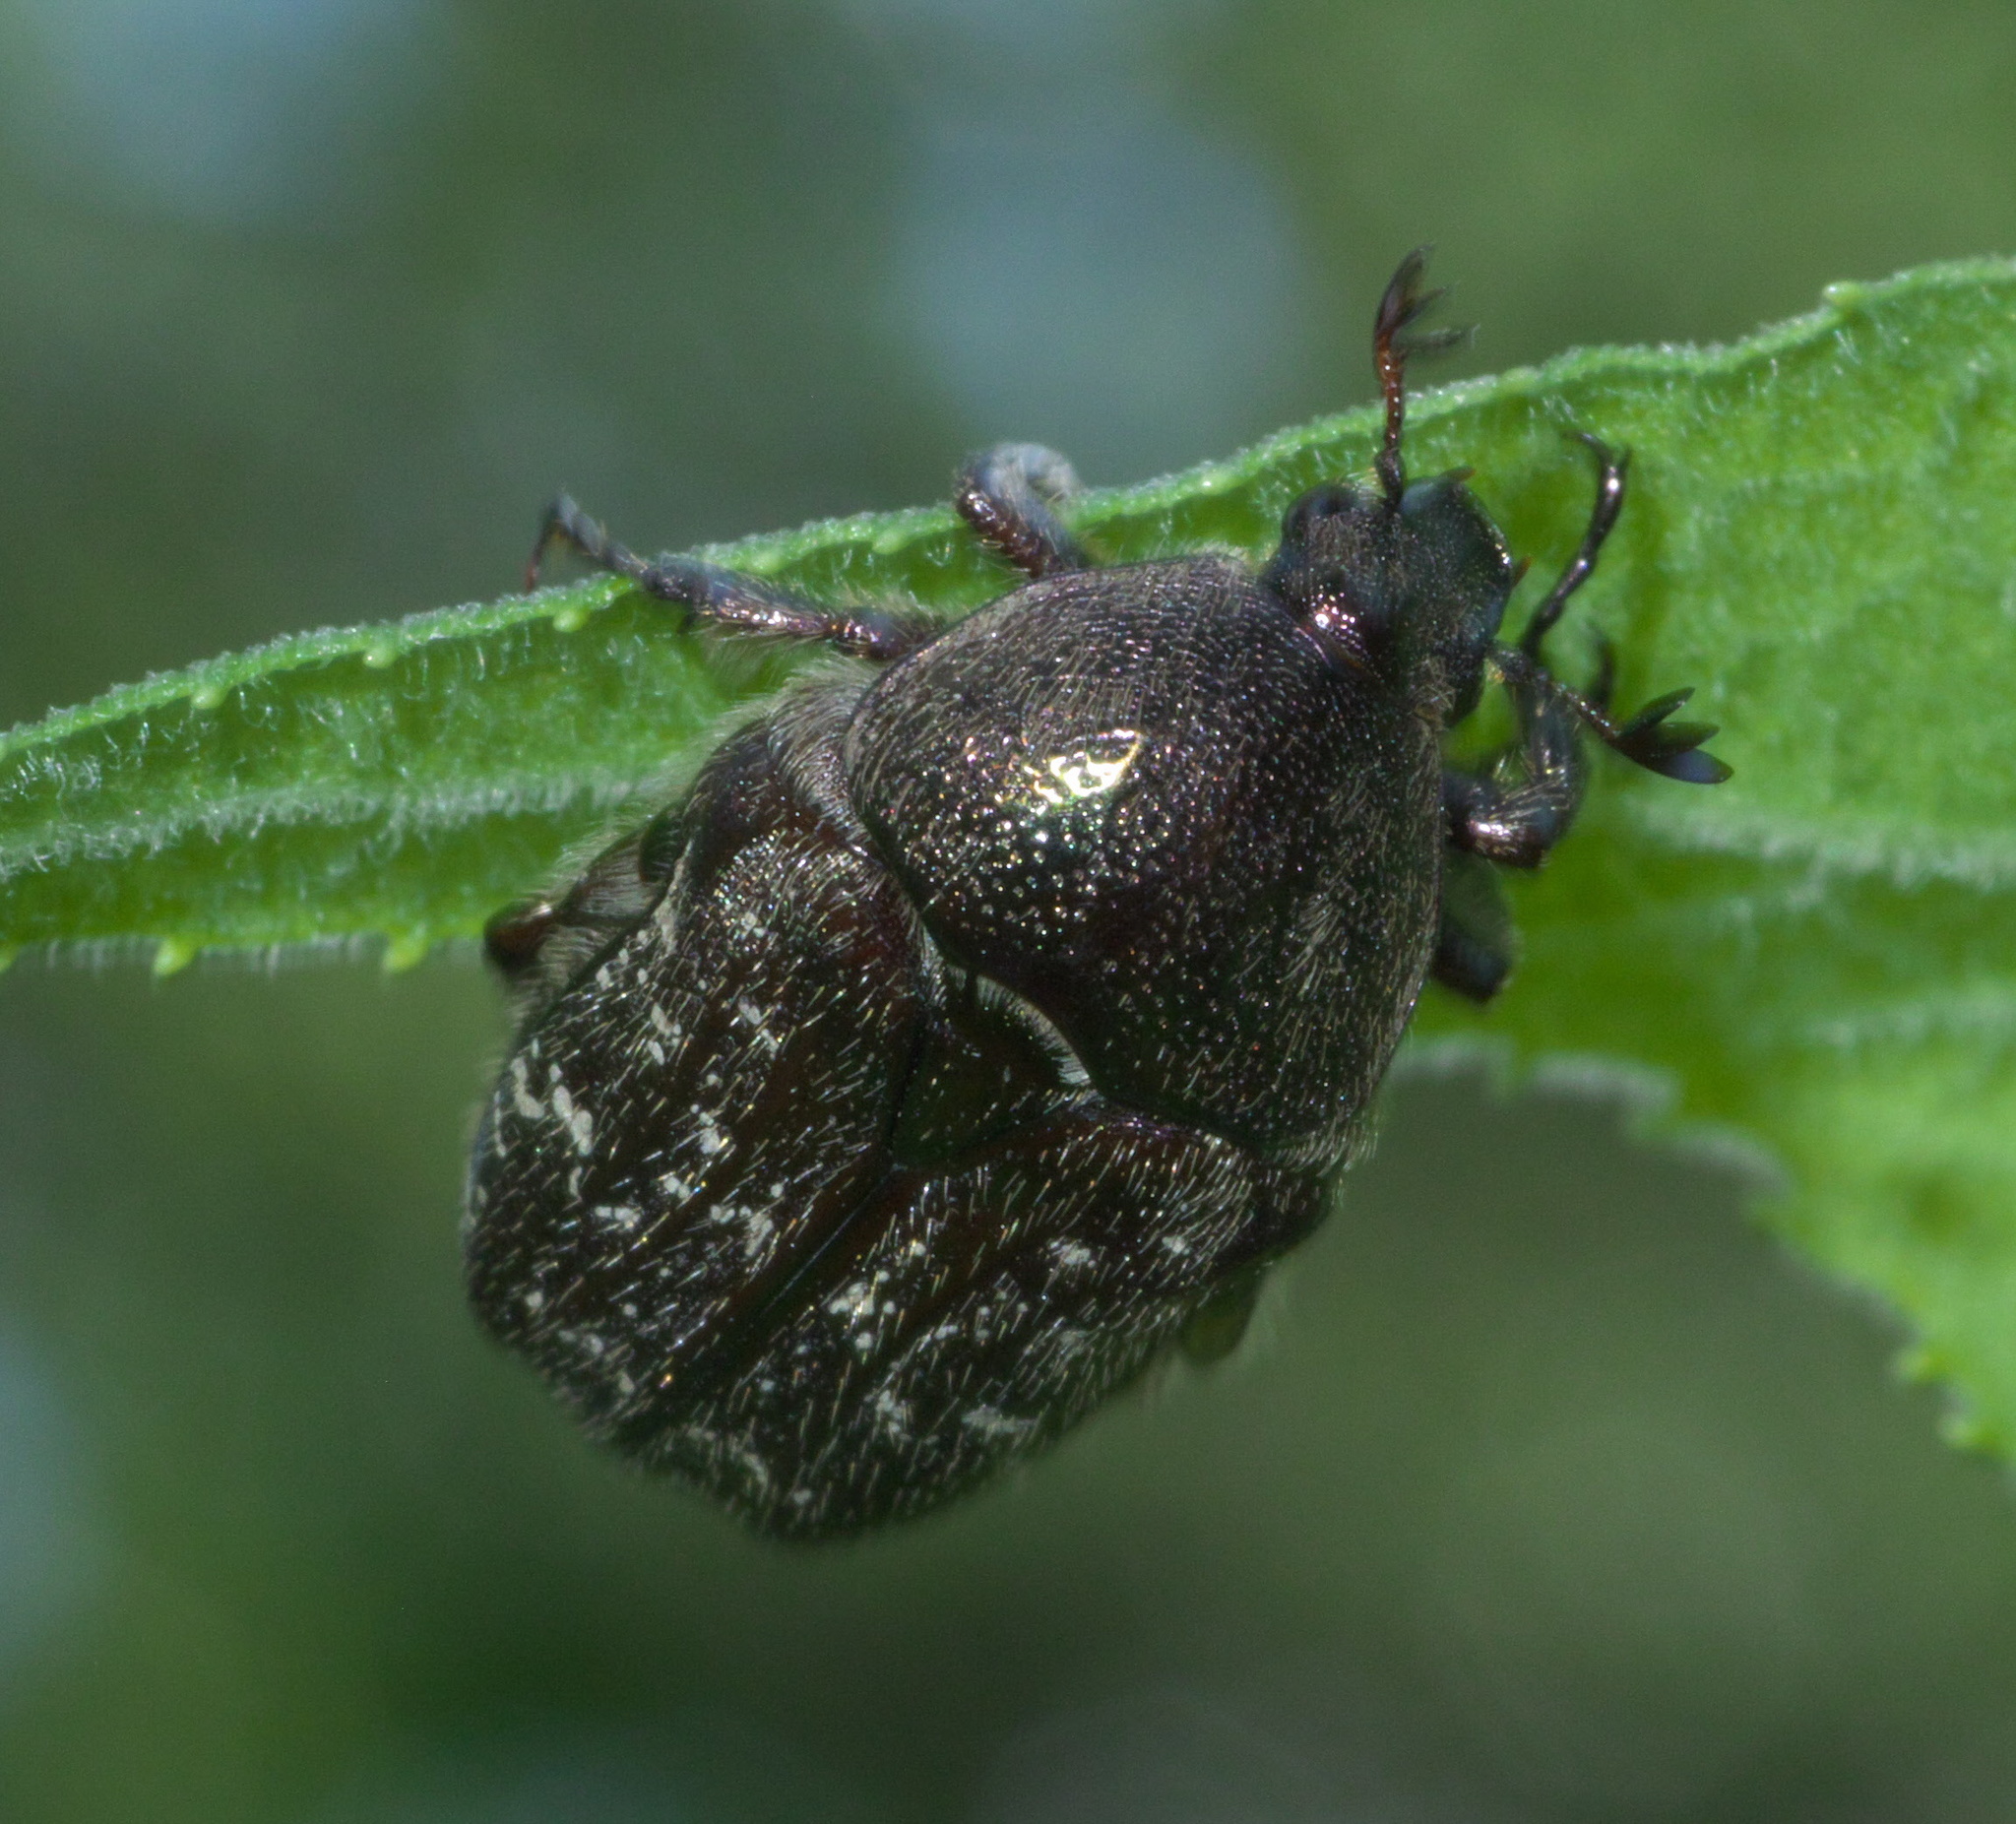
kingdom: Animalia
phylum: Arthropoda
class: Insecta
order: Coleoptera
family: Scarabaeidae
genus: Euphoria
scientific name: Euphoria sepulcralis
